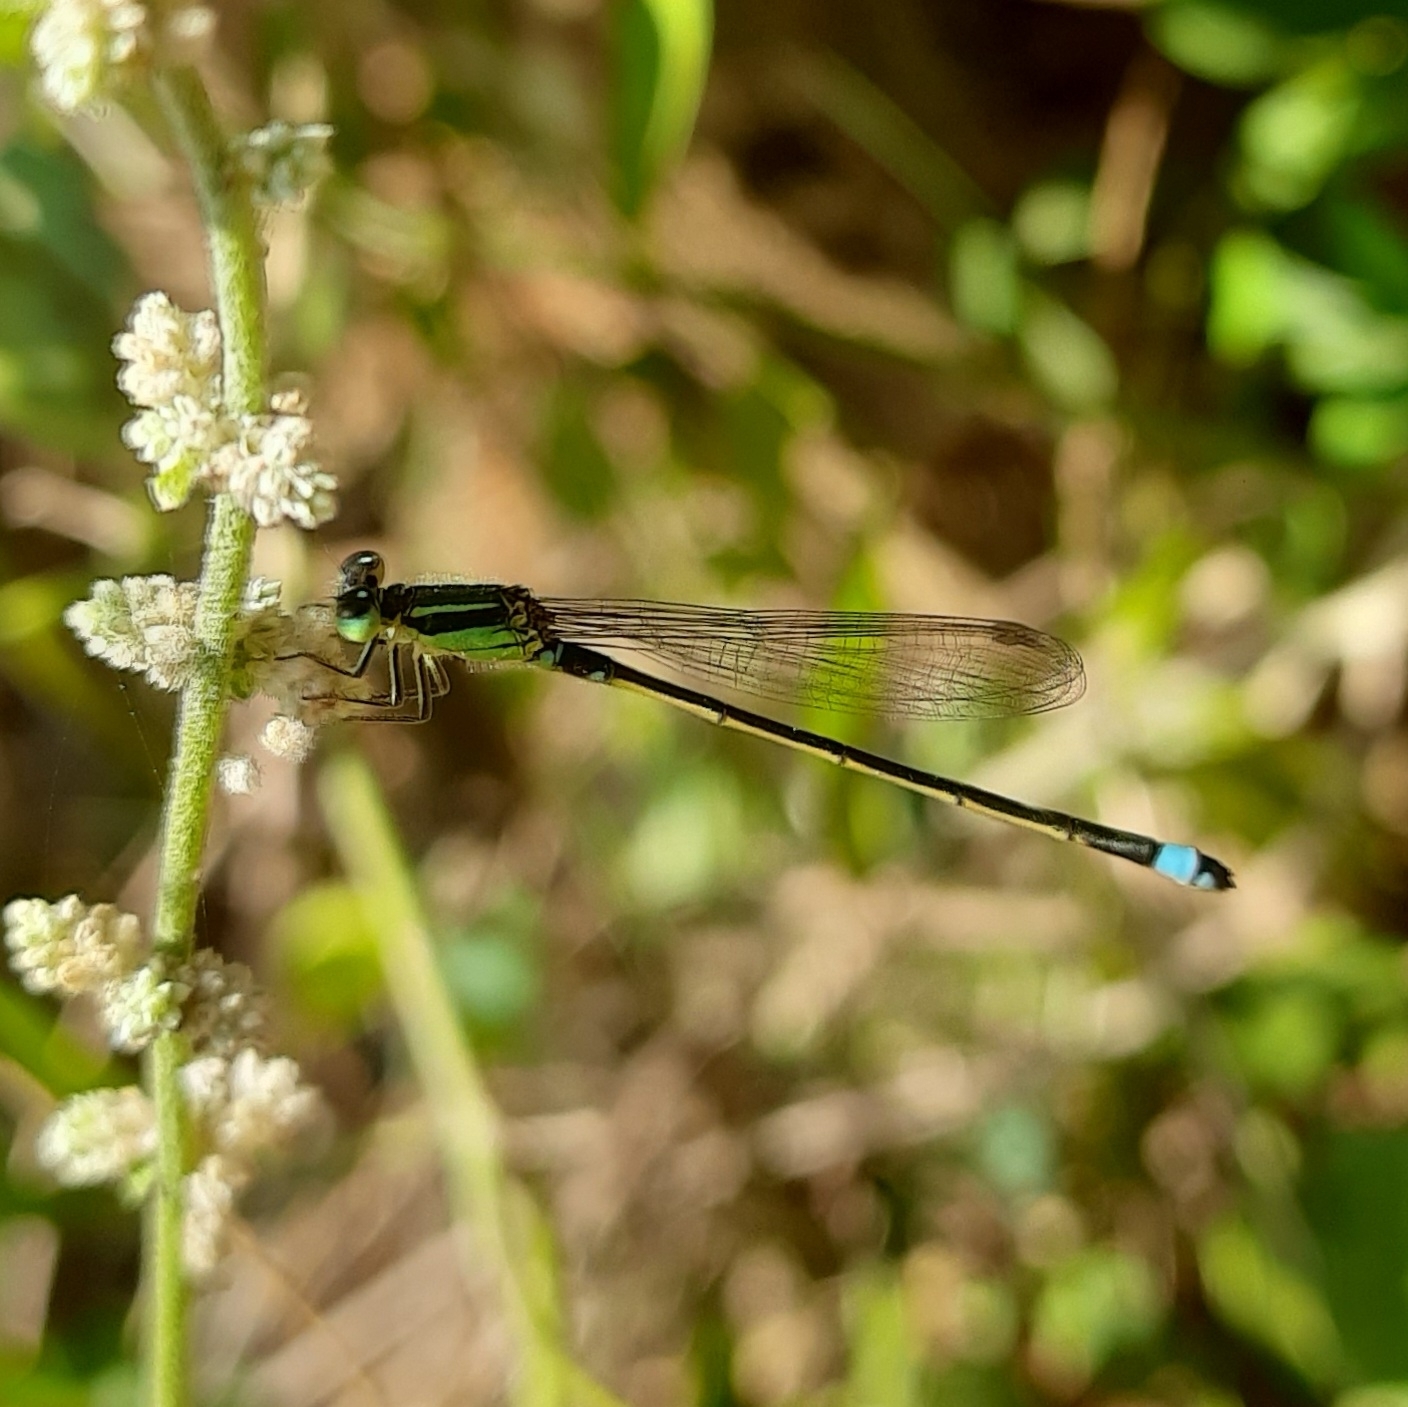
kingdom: Animalia
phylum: Arthropoda
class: Insecta
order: Odonata
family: Coenagrionidae
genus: Ischnura
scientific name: Ischnura senegalensis
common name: Tropical bluetail
